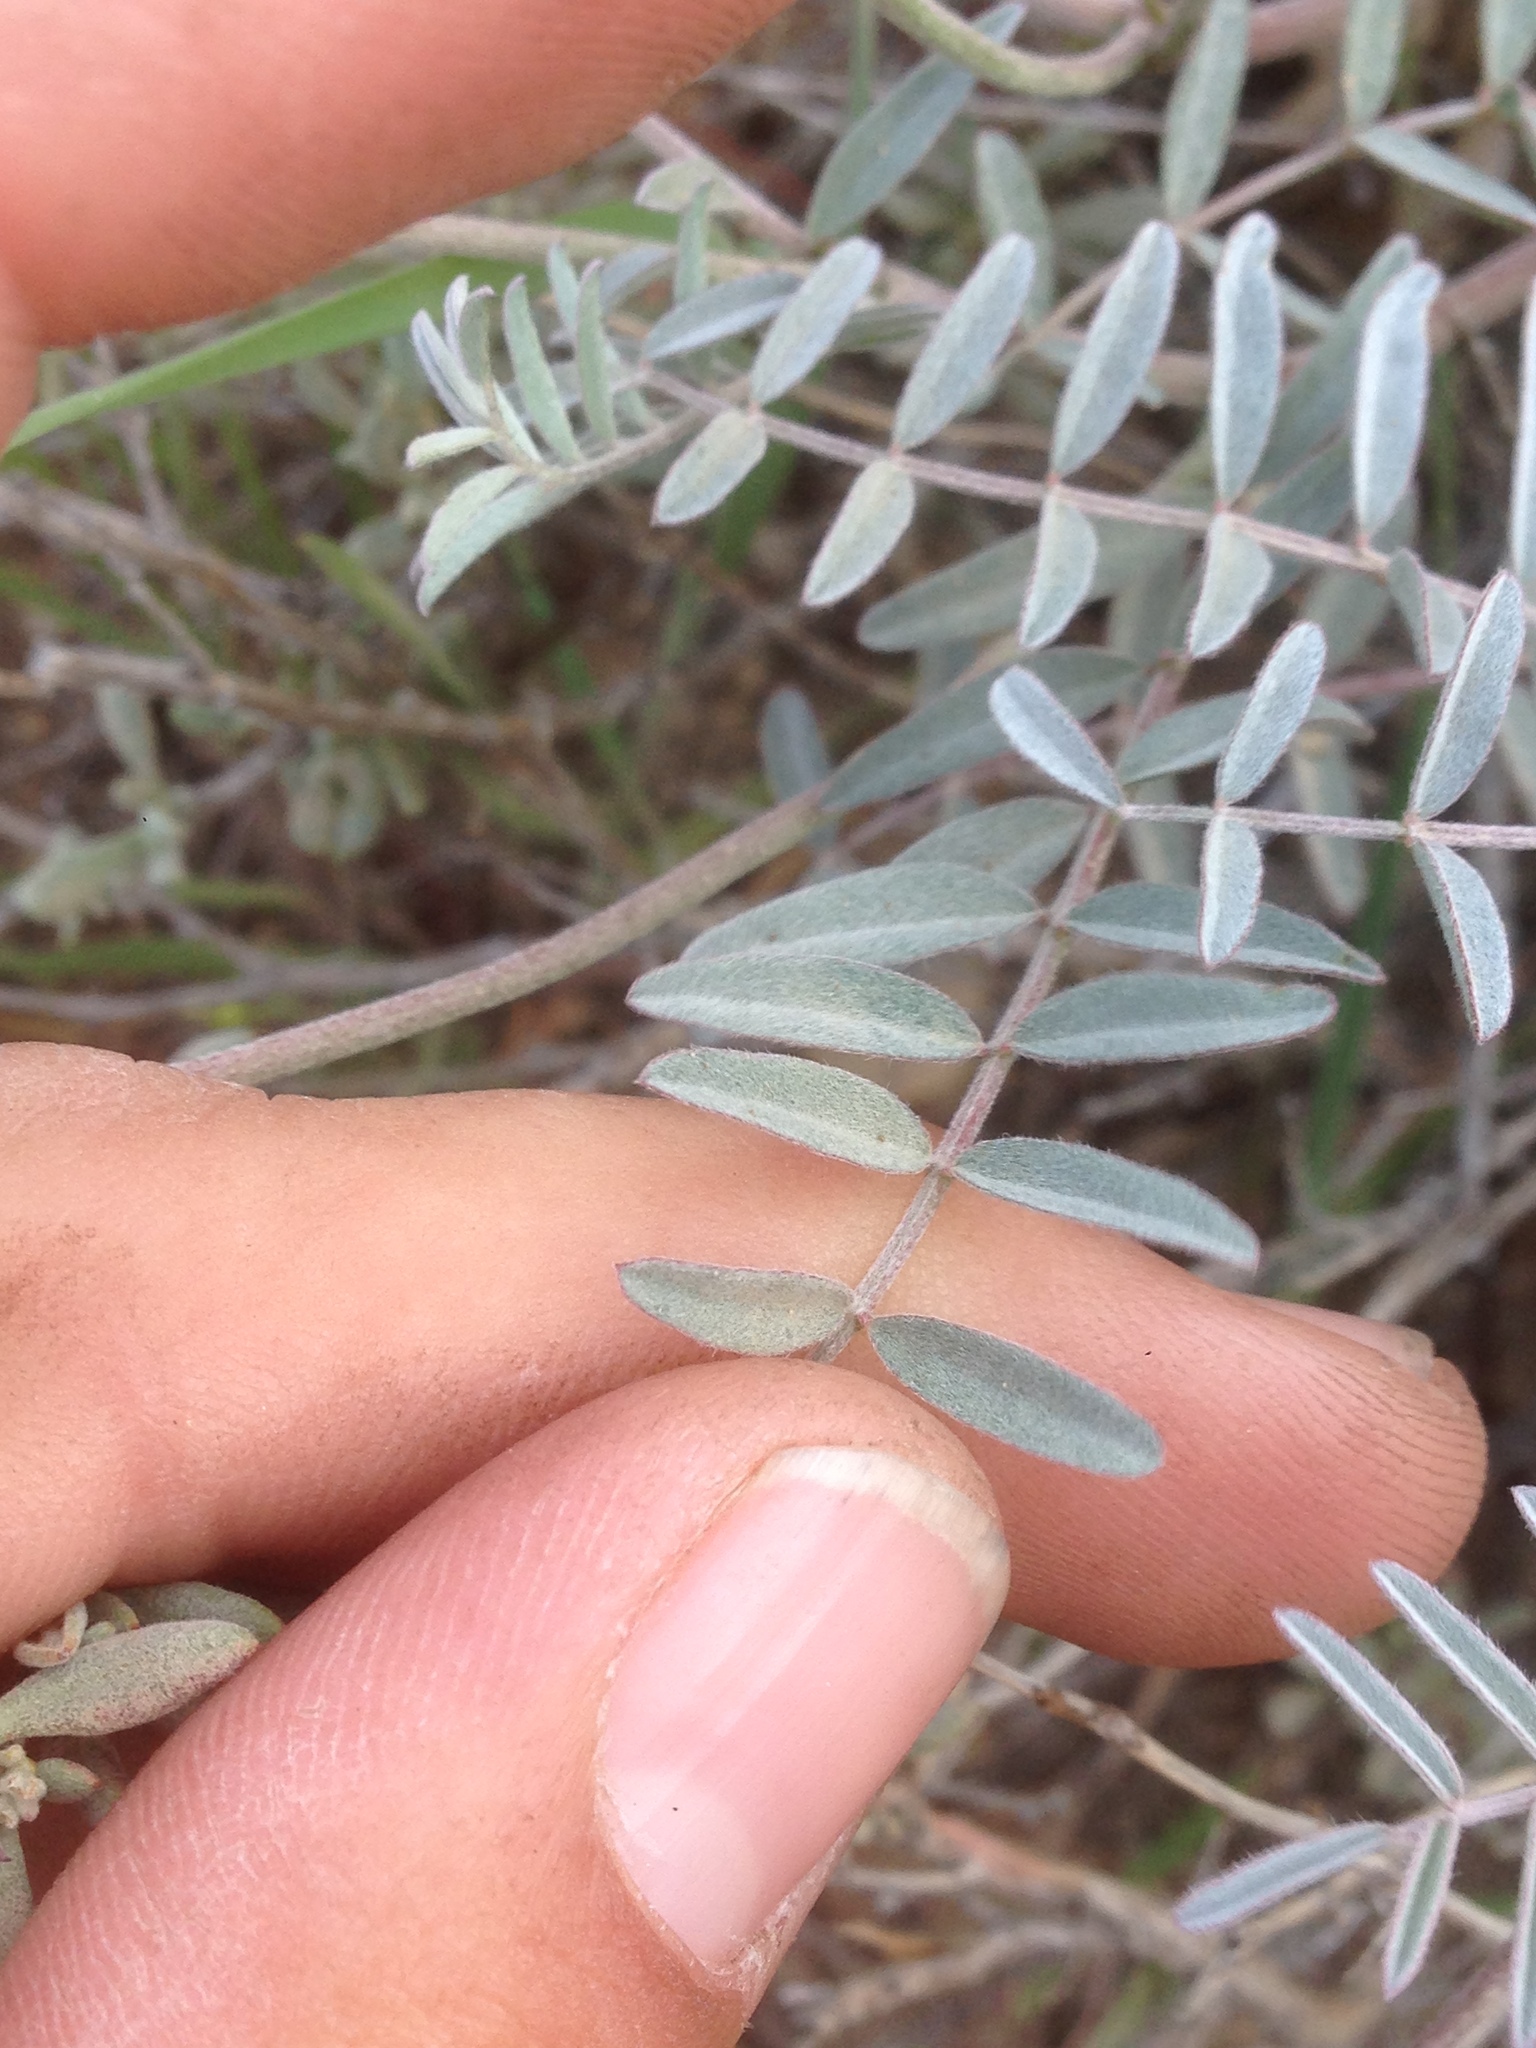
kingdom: Plantae
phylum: Tracheophyta
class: Magnoliopsida
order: Fabales
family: Fabaceae
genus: Astragalus
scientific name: Astragalus palmeri
